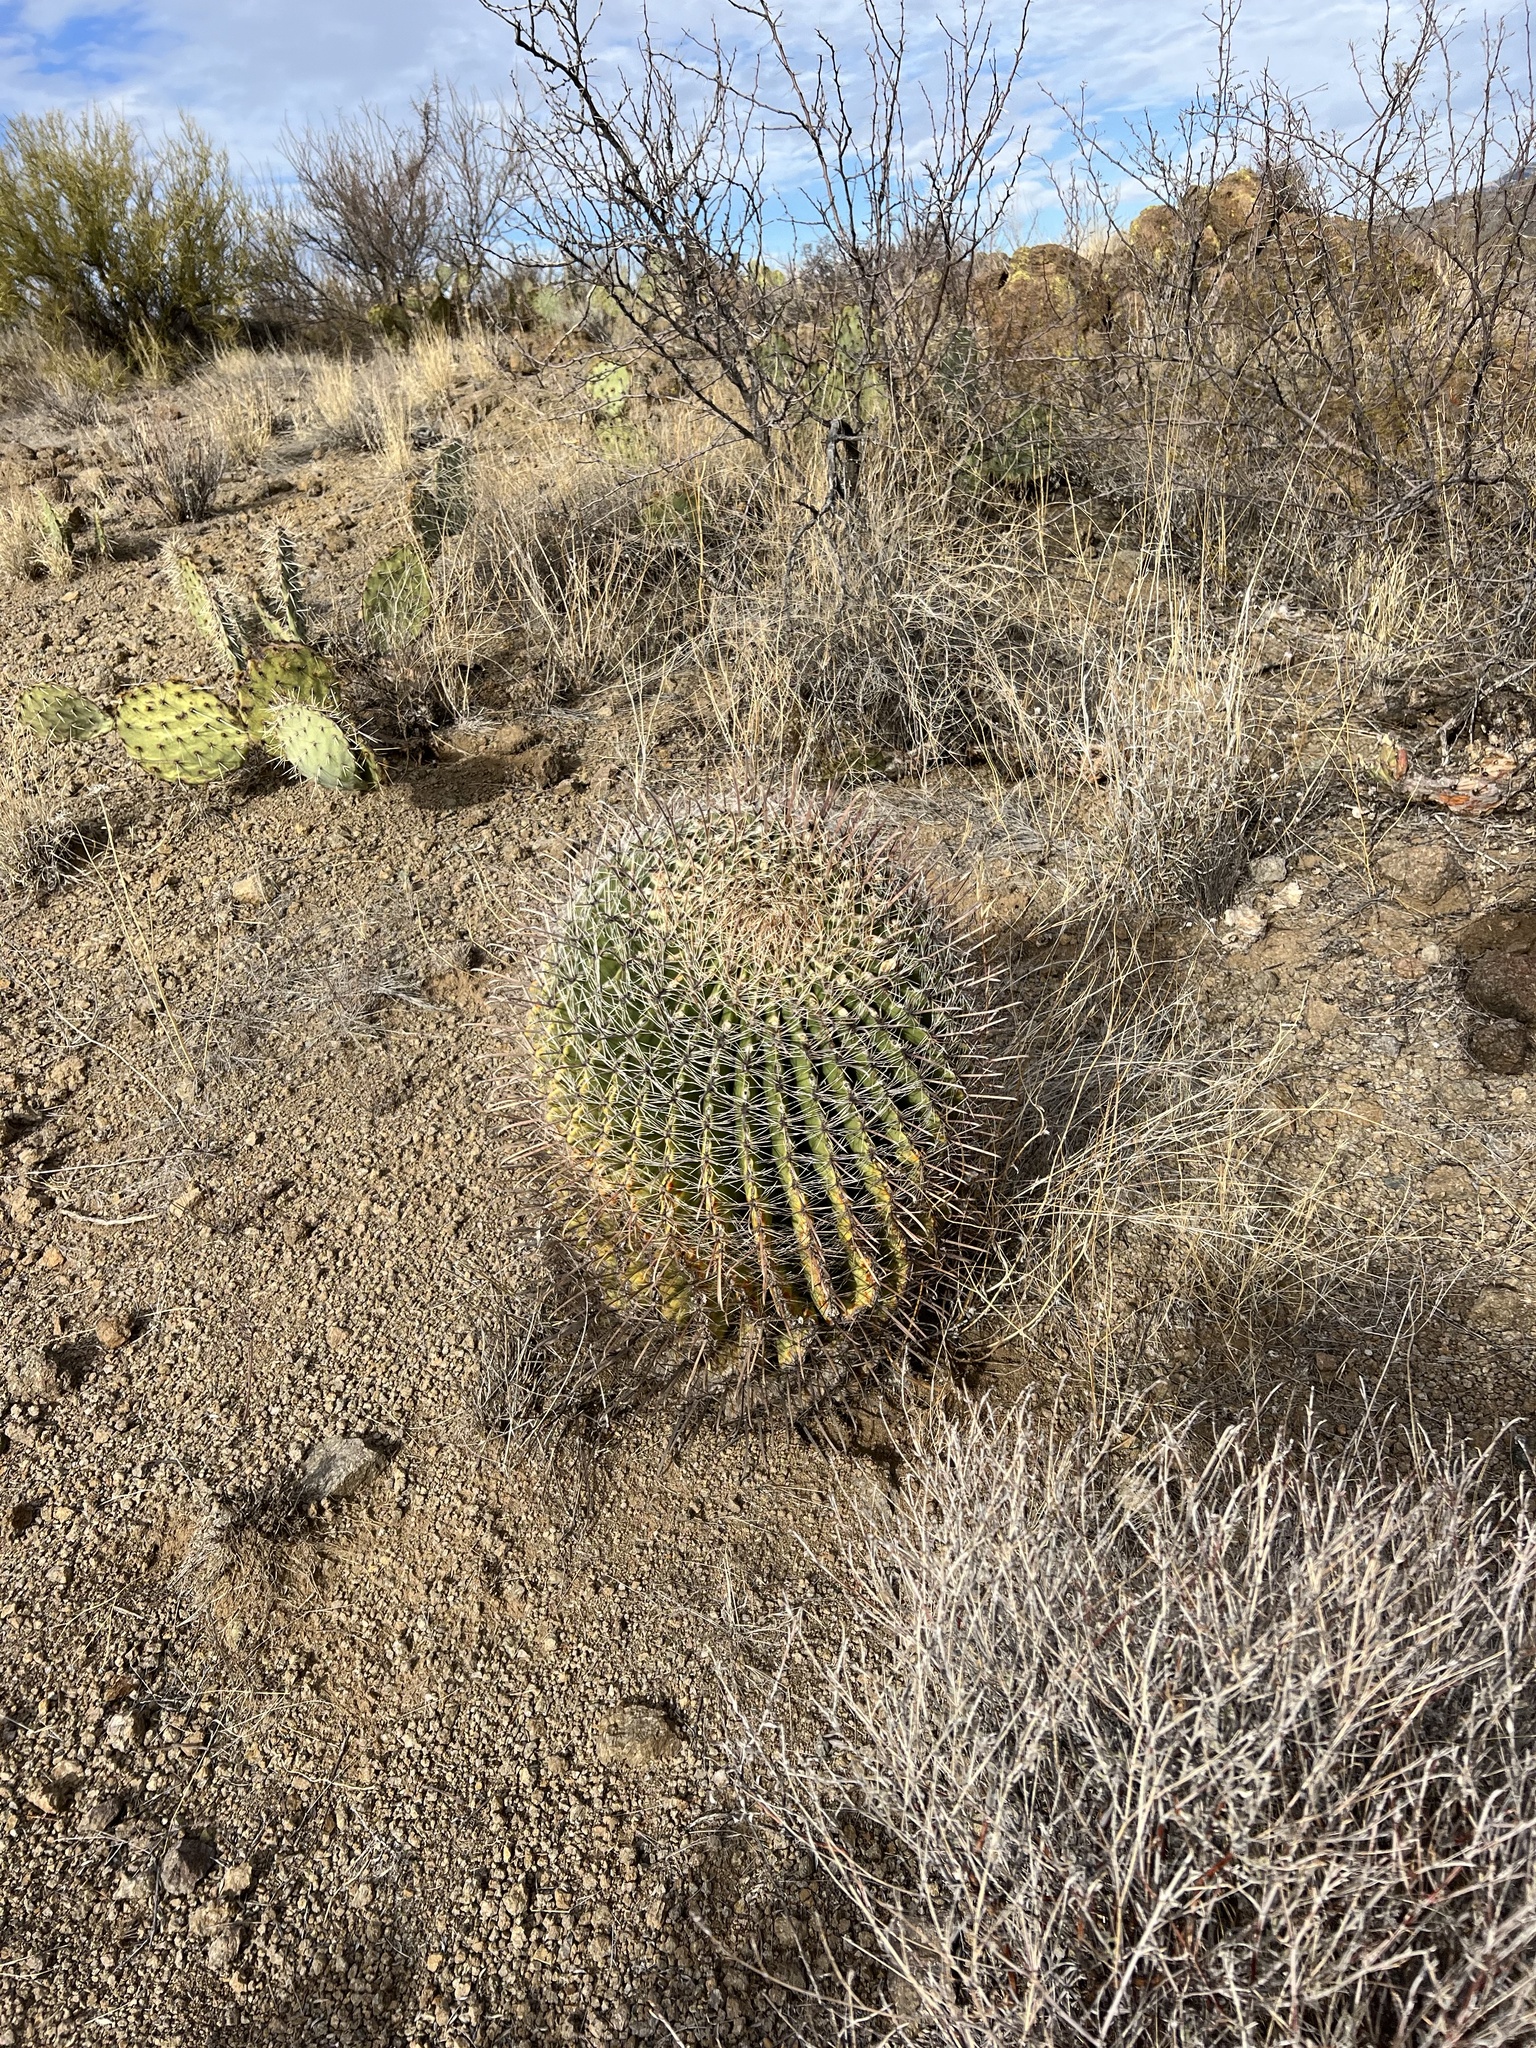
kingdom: Plantae
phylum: Tracheophyta
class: Magnoliopsida
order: Caryophyllales
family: Cactaceae
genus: Ferocactus
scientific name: Ferocactus wislizeni
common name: Candy barrel cactus
